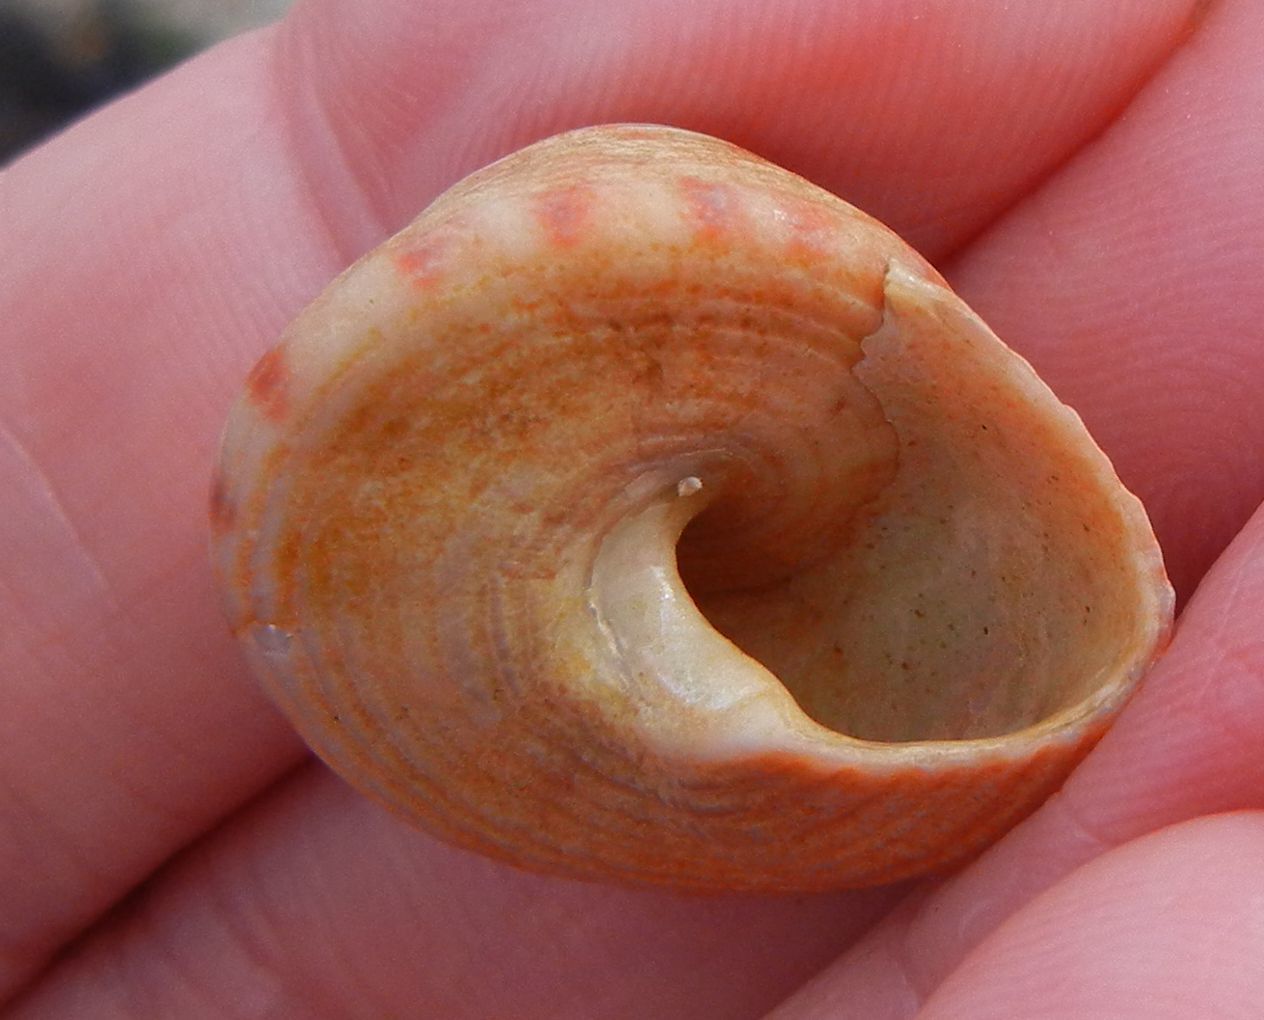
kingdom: Animalia
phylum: Mollusca
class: Gastropoda
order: Trochida
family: Calliostomatidae
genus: Calliostoma
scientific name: Calliostoma zizyphinum
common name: Painted top shell
